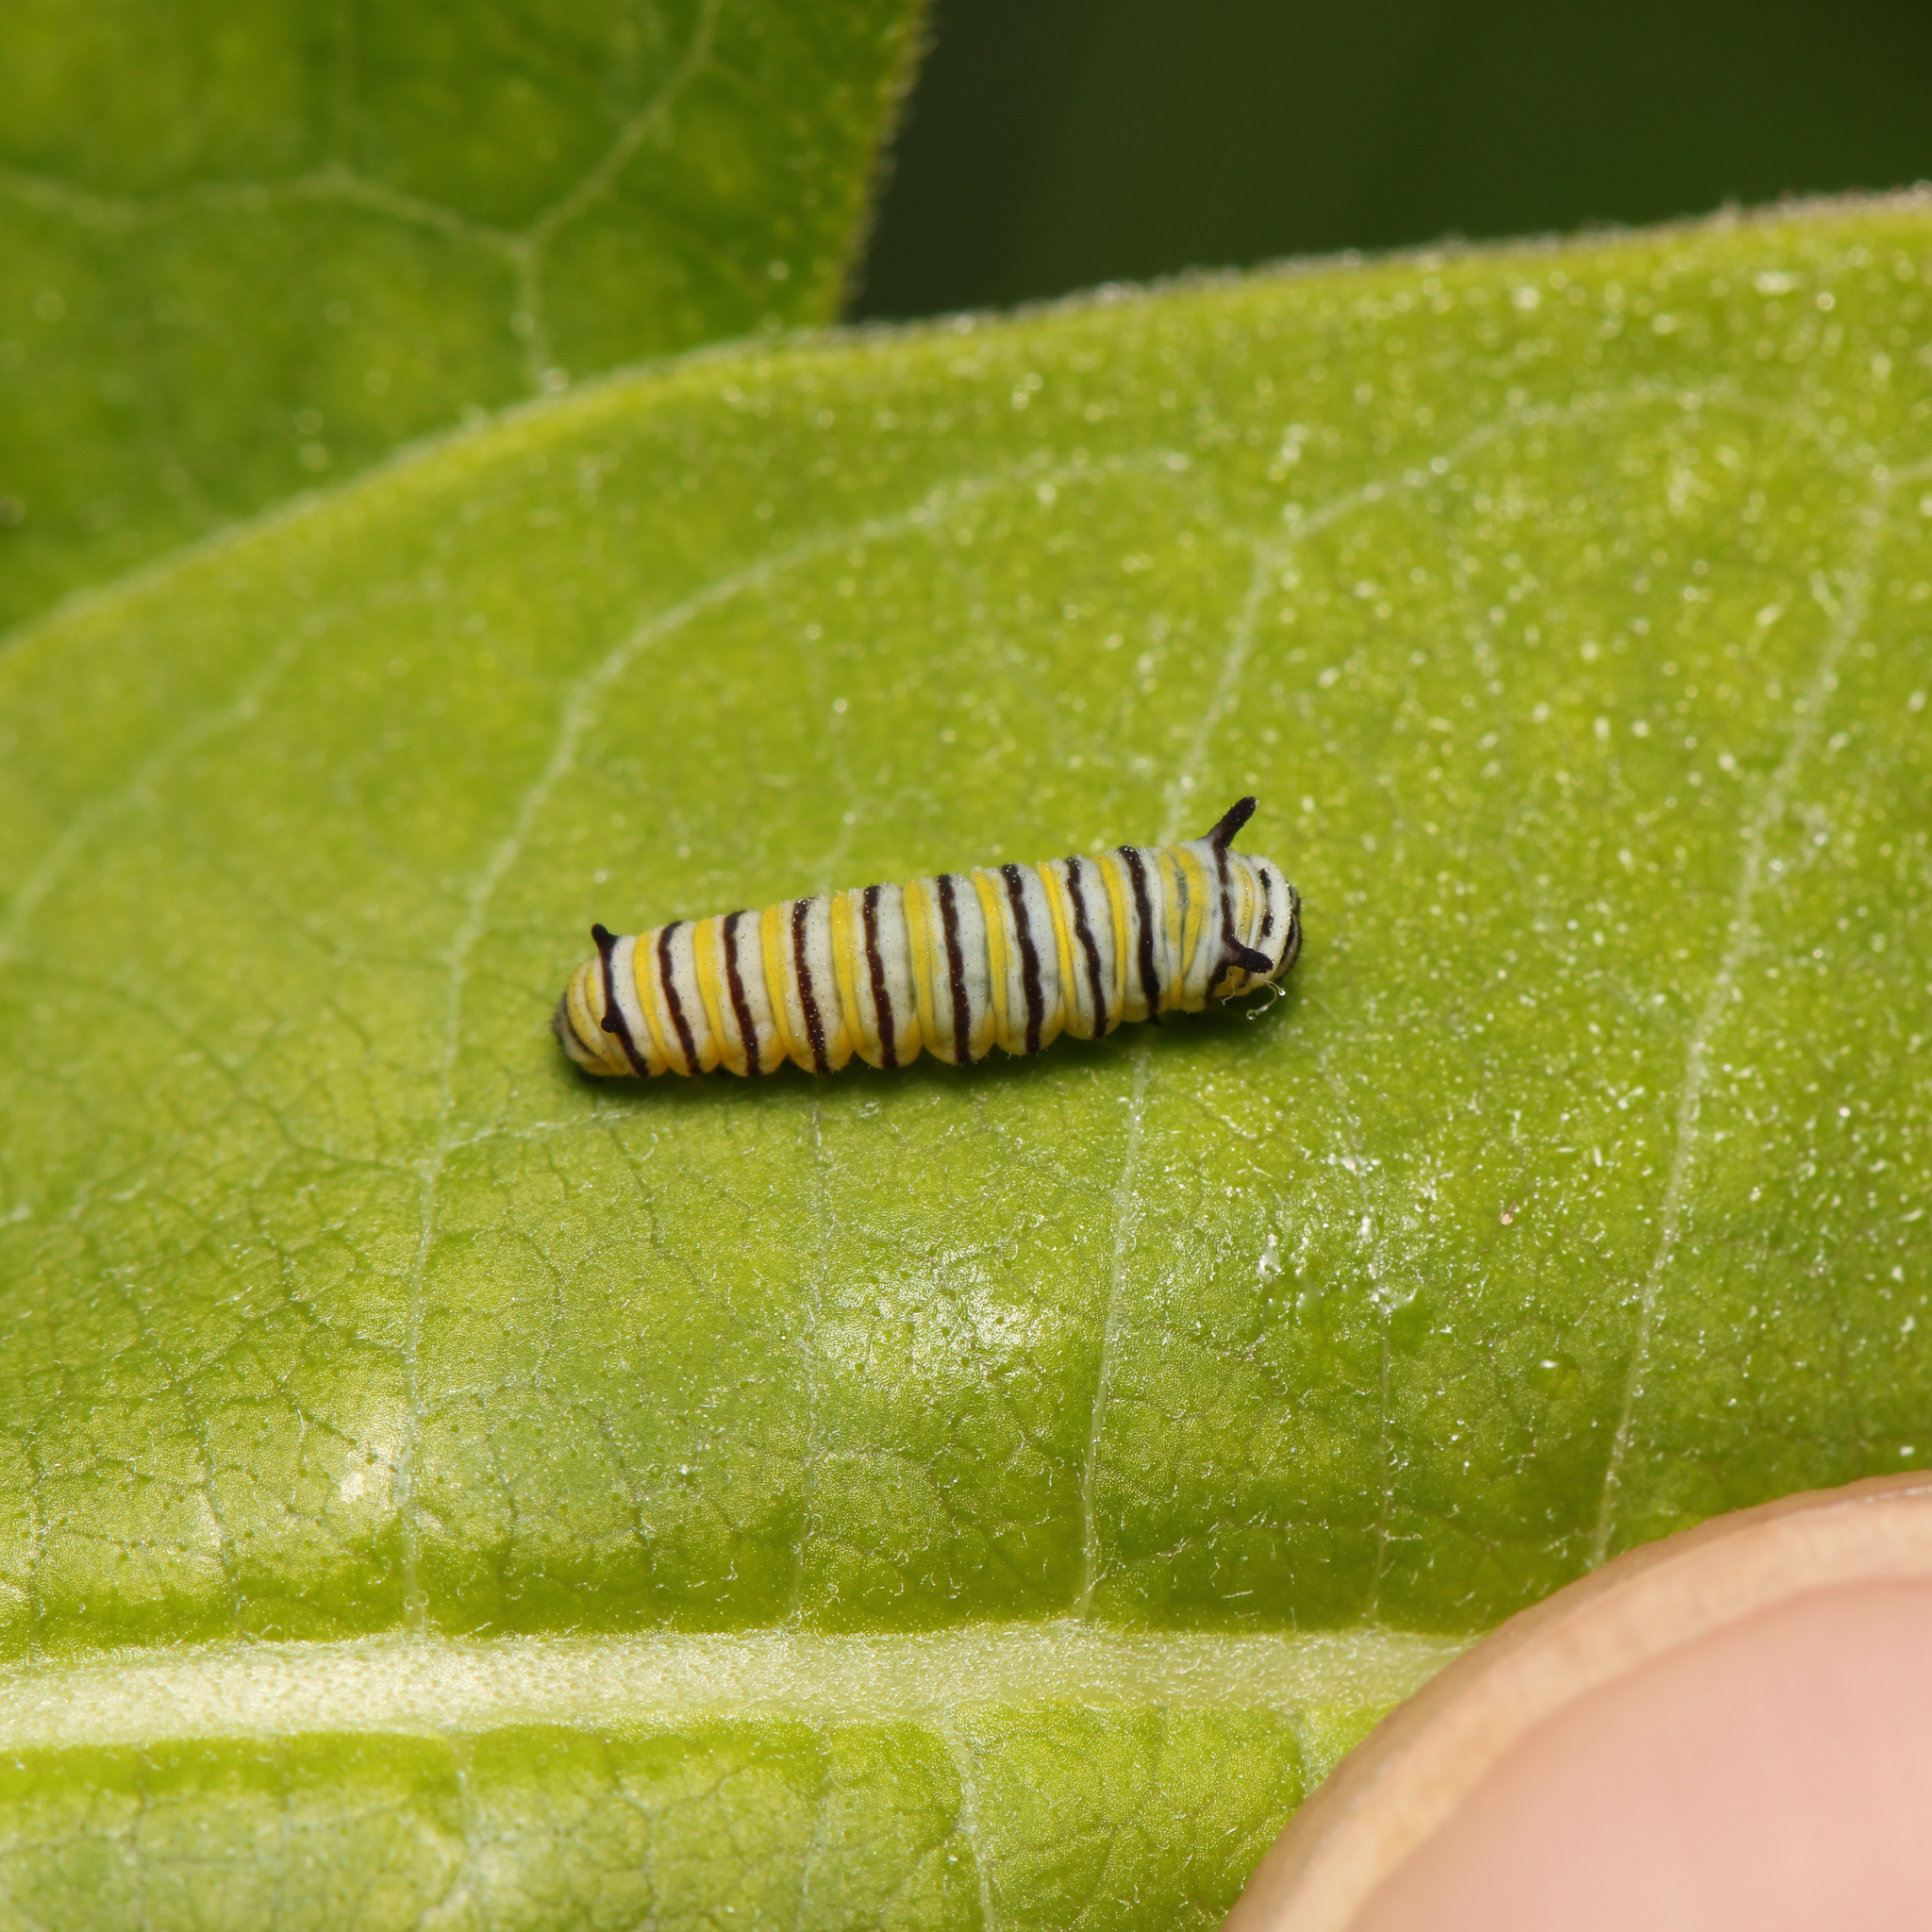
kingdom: Animalia
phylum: Arthropoda
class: Insecta
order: Lepidoptera
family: Nymphalidae
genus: Danaus
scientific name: Danaus plexippus
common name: Monarch
